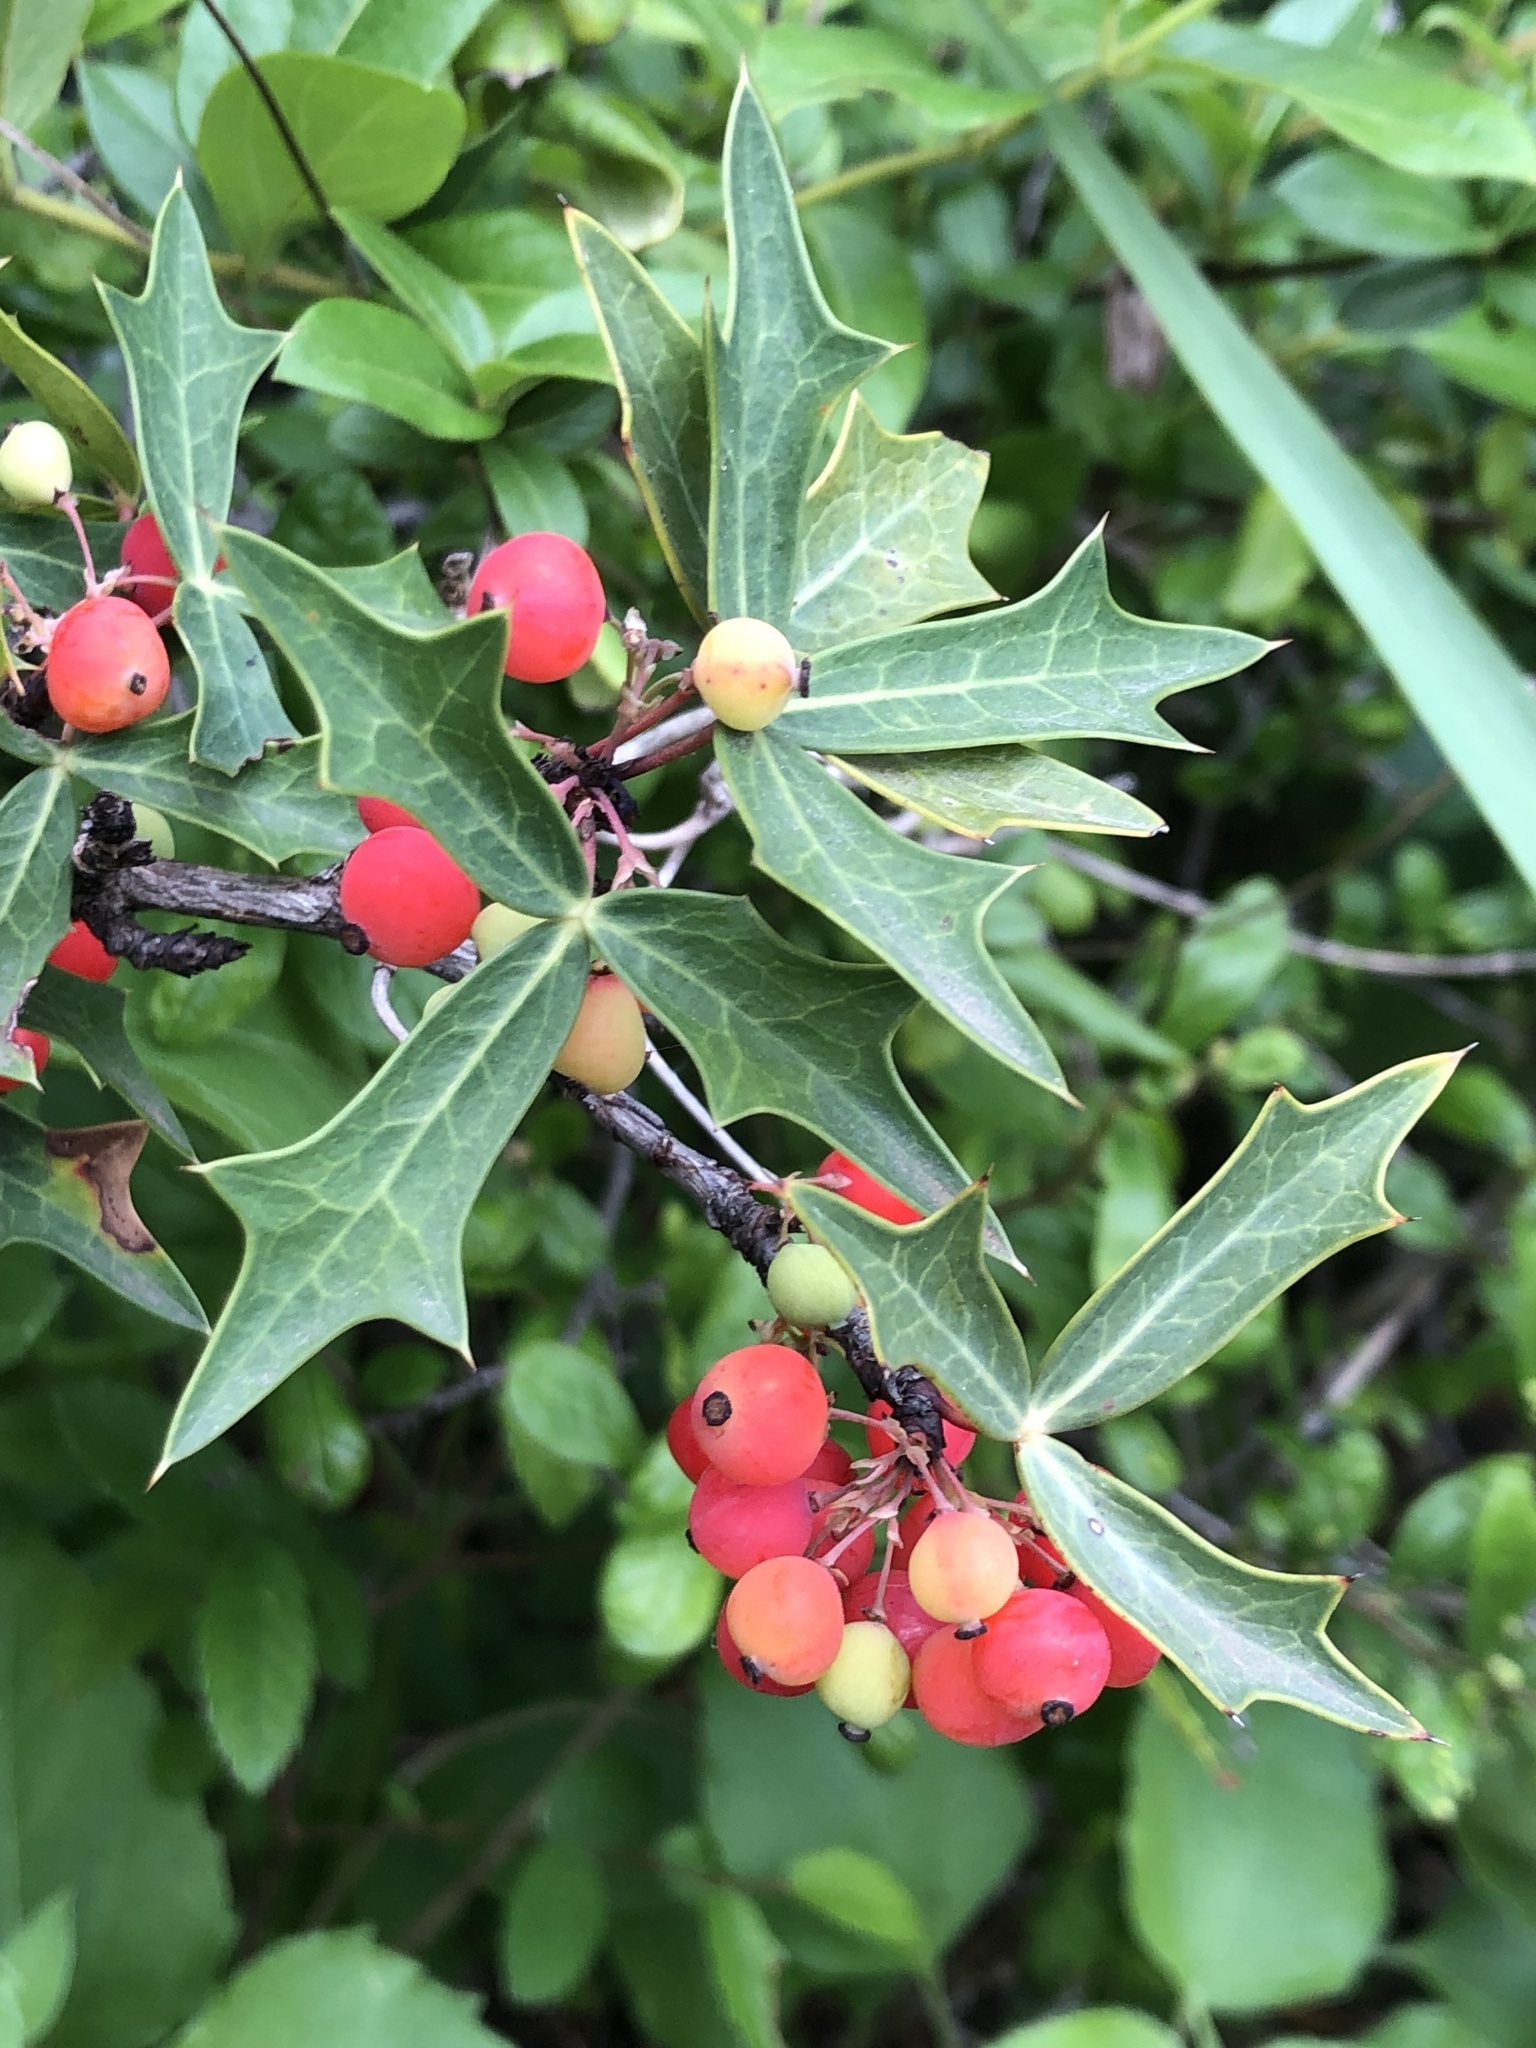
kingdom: Plantae
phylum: Tracheophyta
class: Magnoliopsida
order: Ranunculales
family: Berberidaceae
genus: Alloberberis
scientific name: Alloberberis trifoliolata
